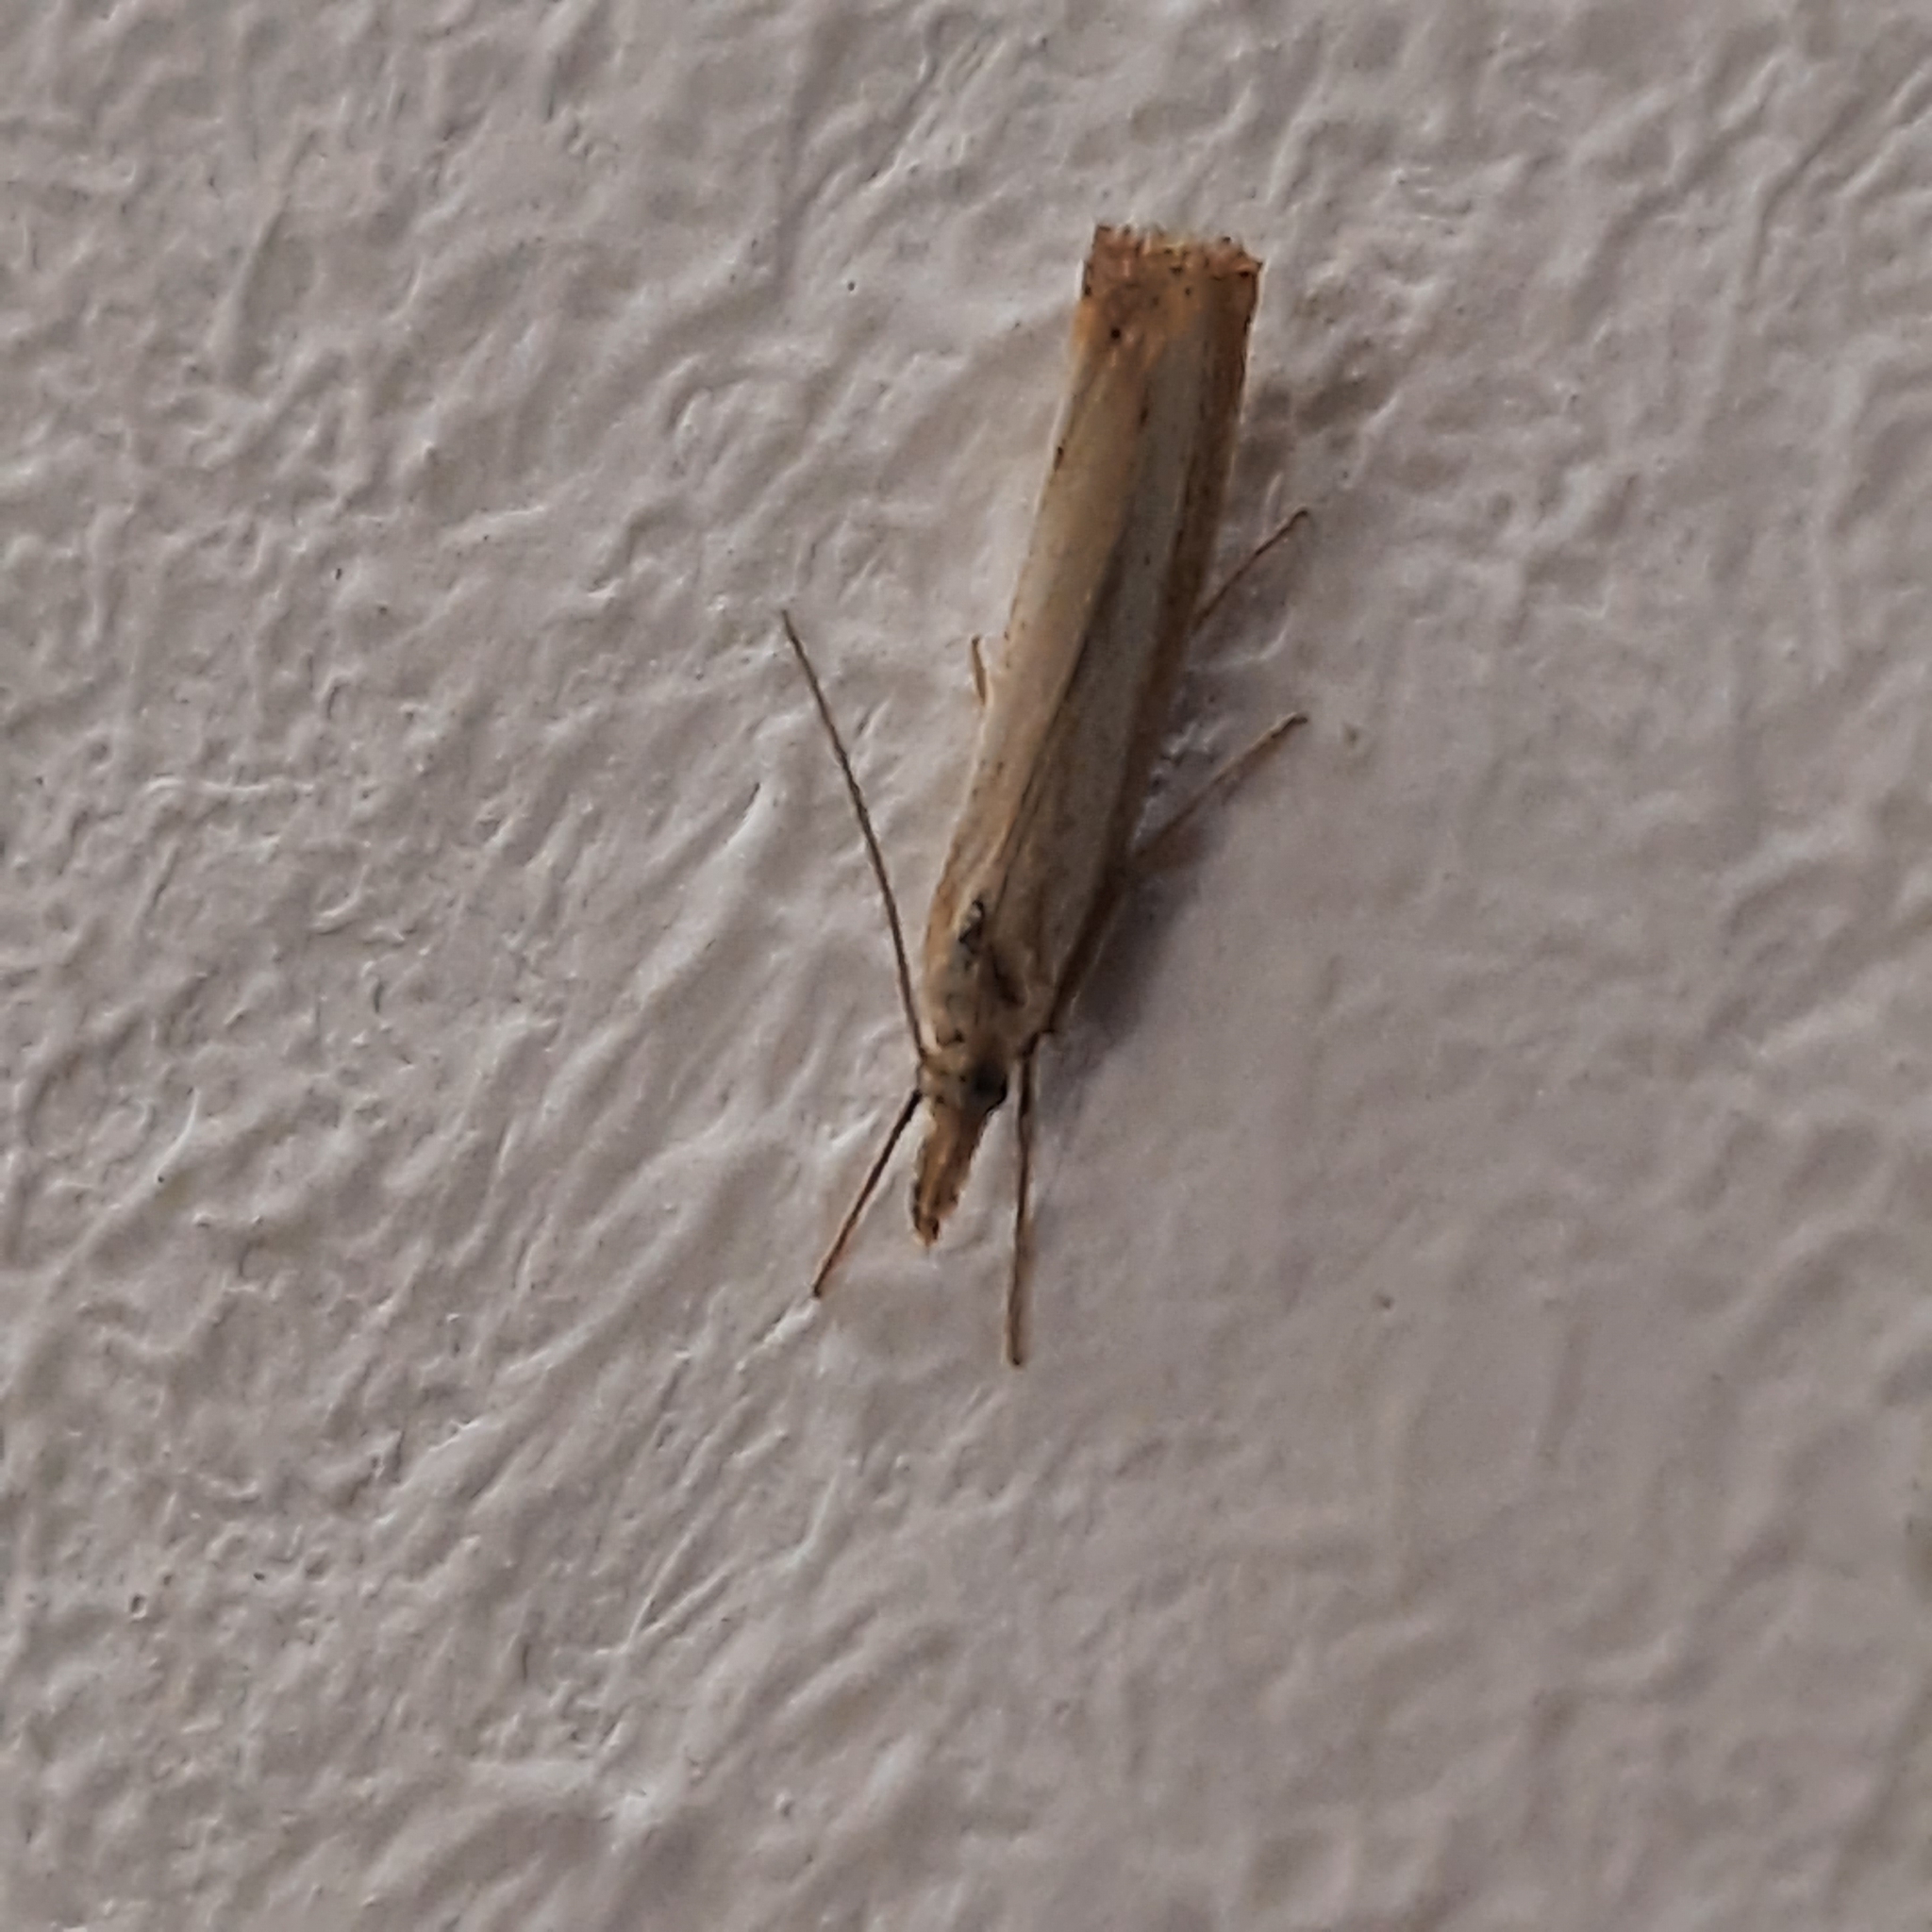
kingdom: Animalia
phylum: Arthropoda
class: Insecta
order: Lepidoptera
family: Crambidae
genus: Agriphila
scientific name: Agriphila
